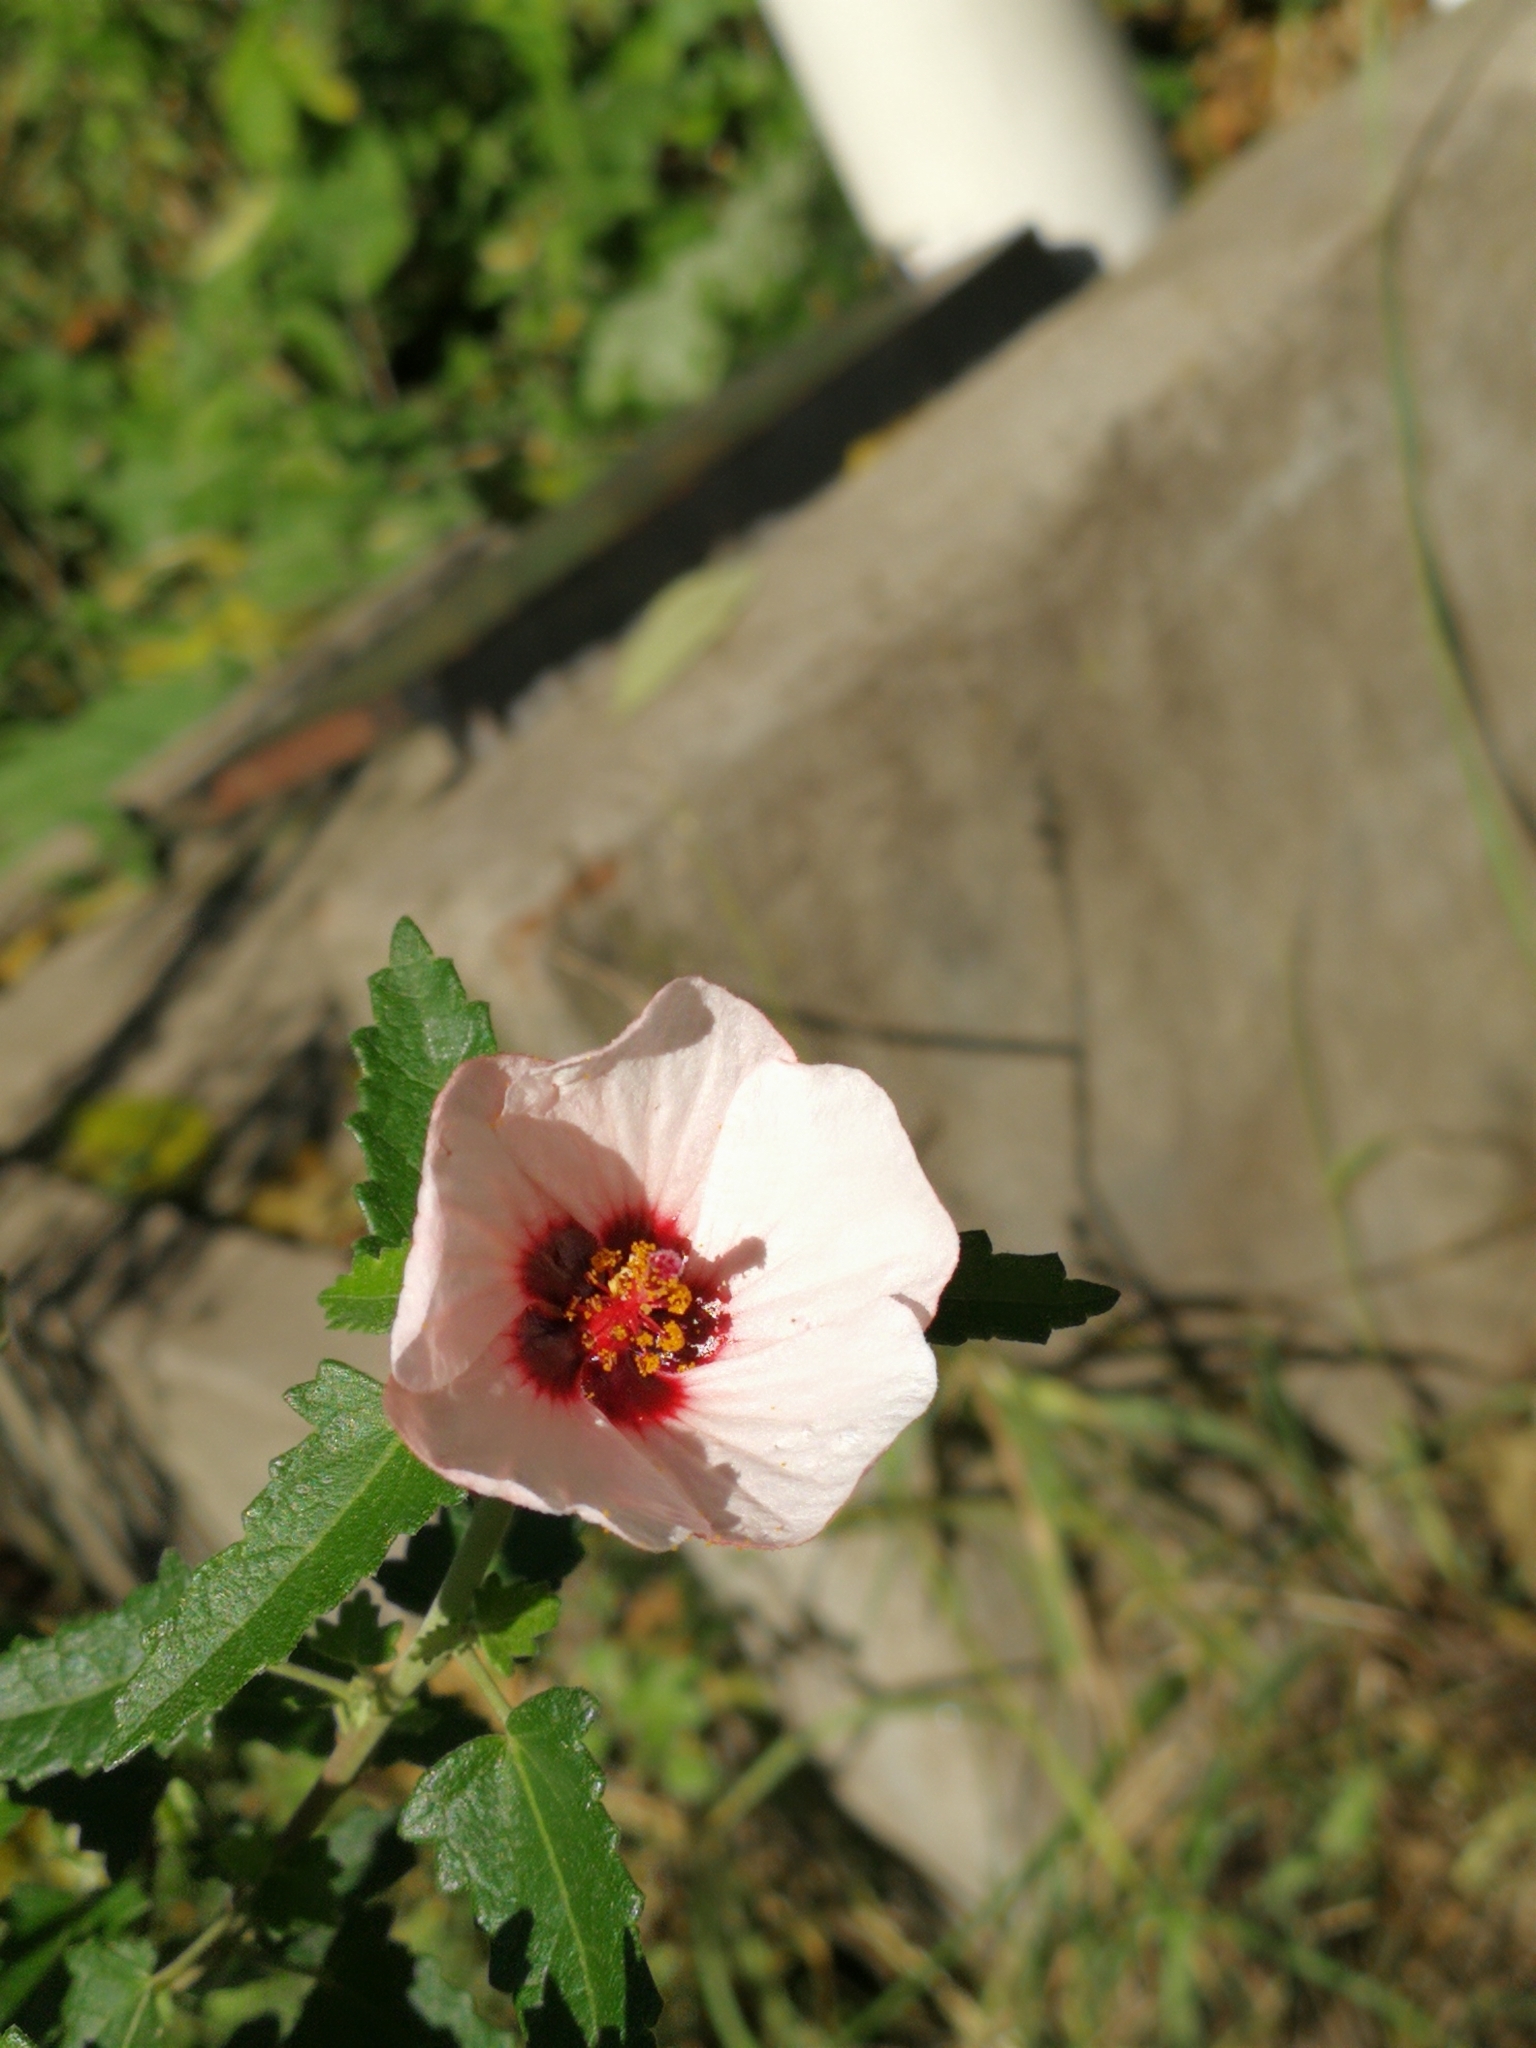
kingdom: Plantae
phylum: Tracheophyta
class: Magnoliopsida
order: Malvales
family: Malvaceae
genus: Pavonia
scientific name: Pavonia hastata
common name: Spearleaf swampmallow
